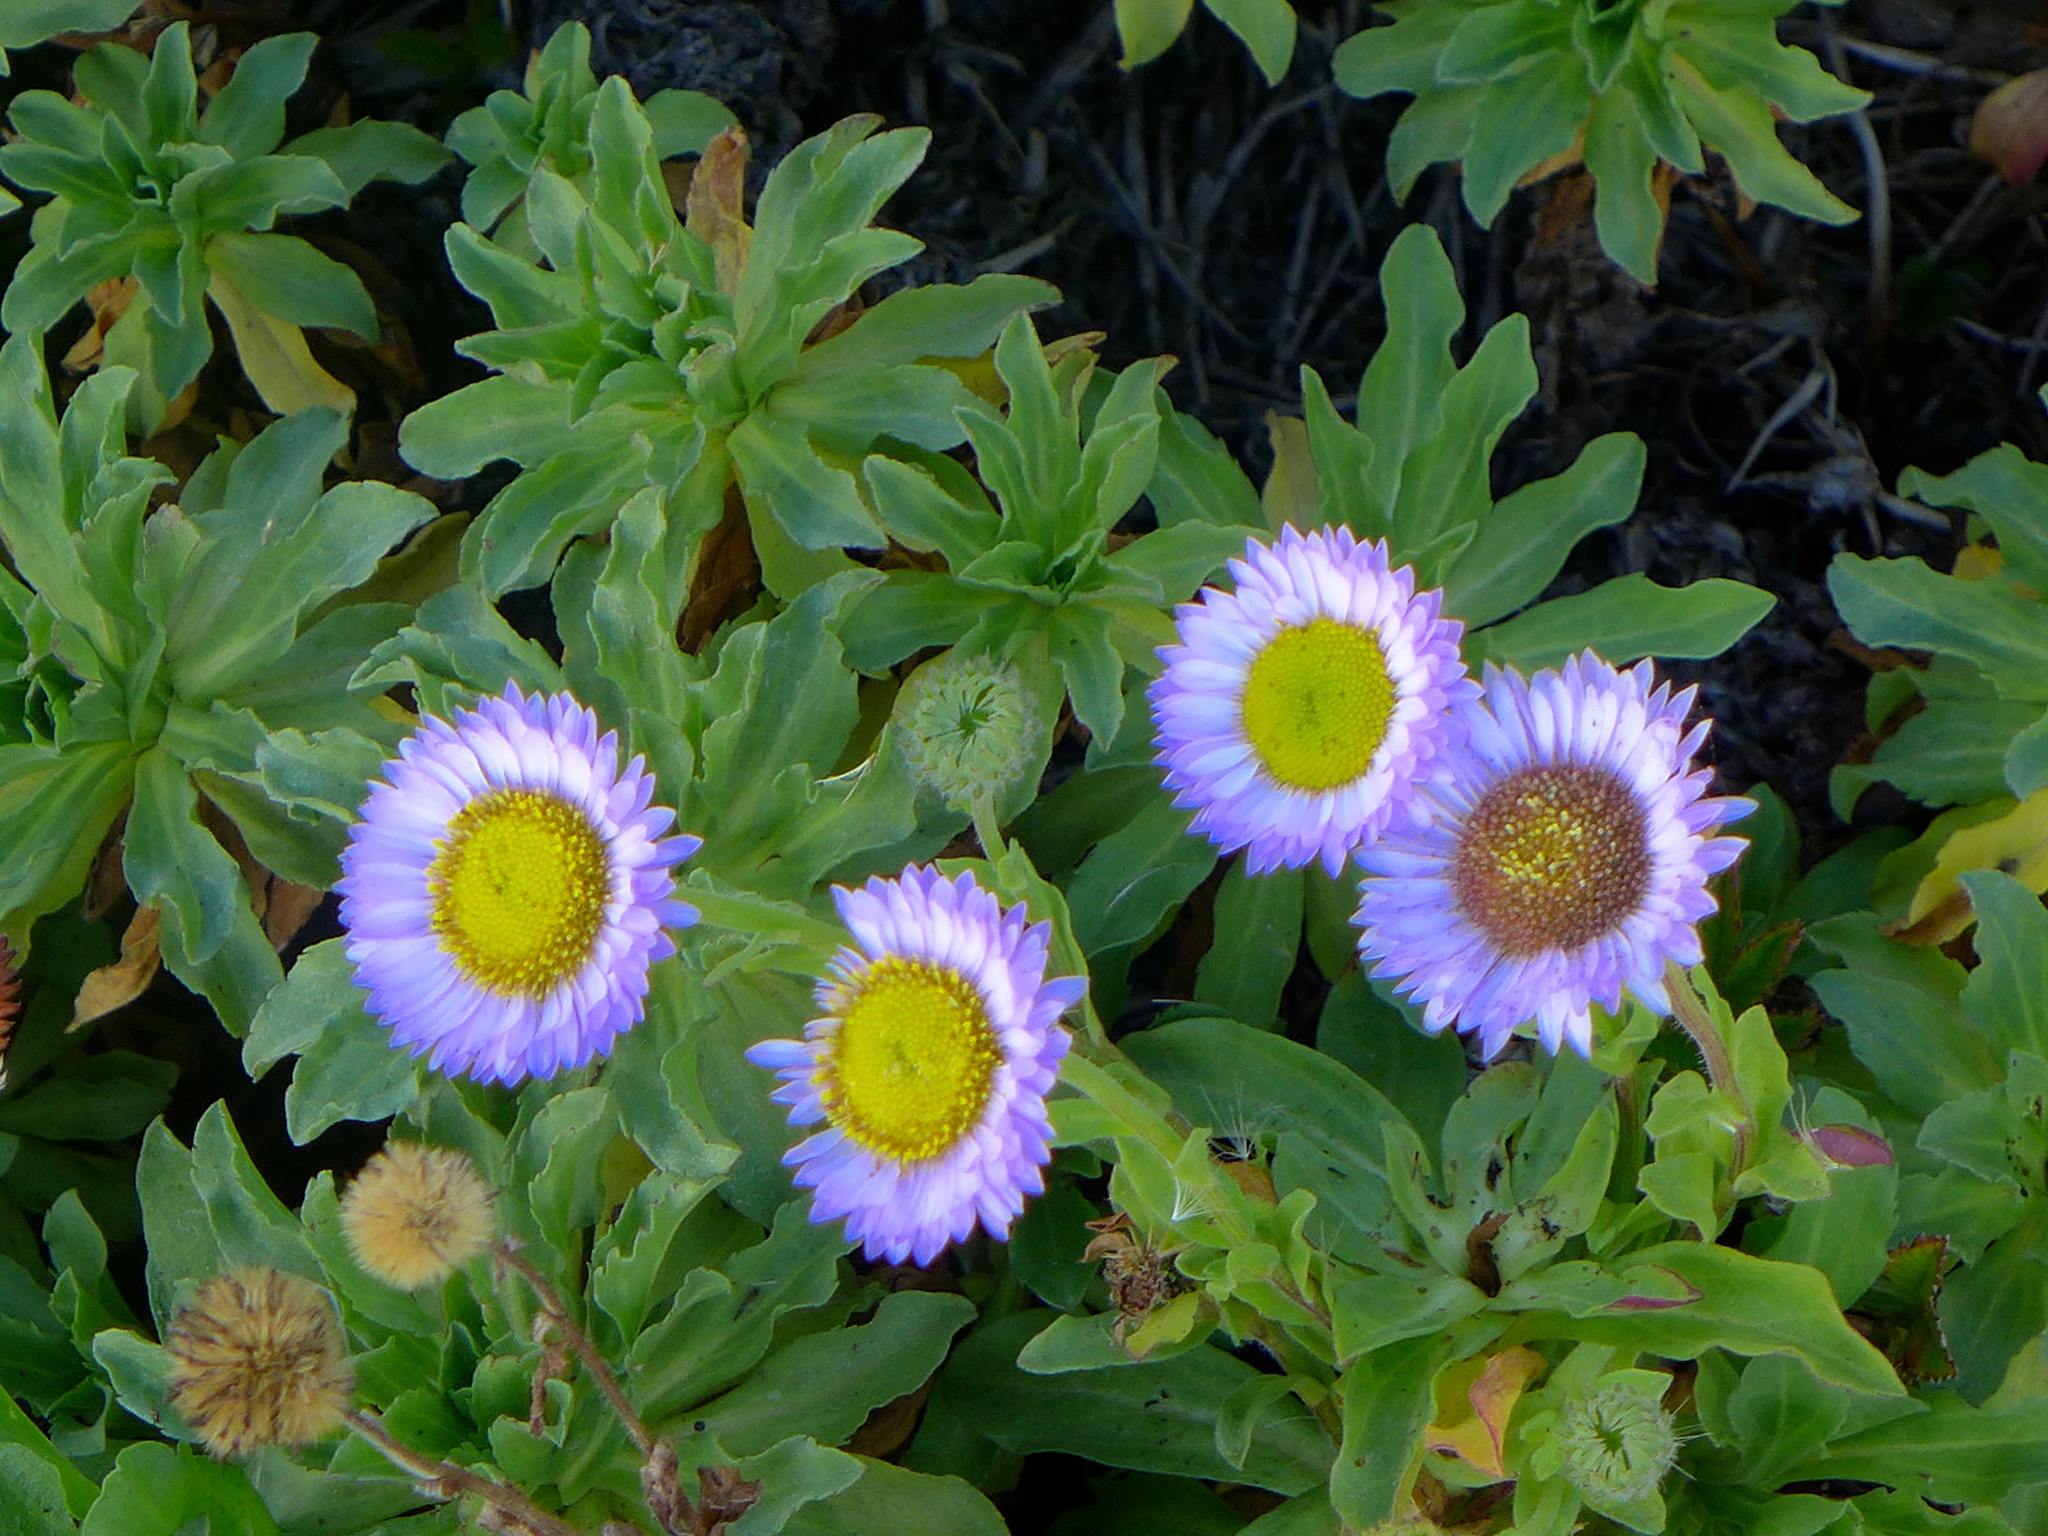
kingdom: Plantae
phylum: Tracheophyta
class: Magnoliopsida
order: Asterales
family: Asteraceae
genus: Erigeron
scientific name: Erigeron glaucus
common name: Seaside daisy
